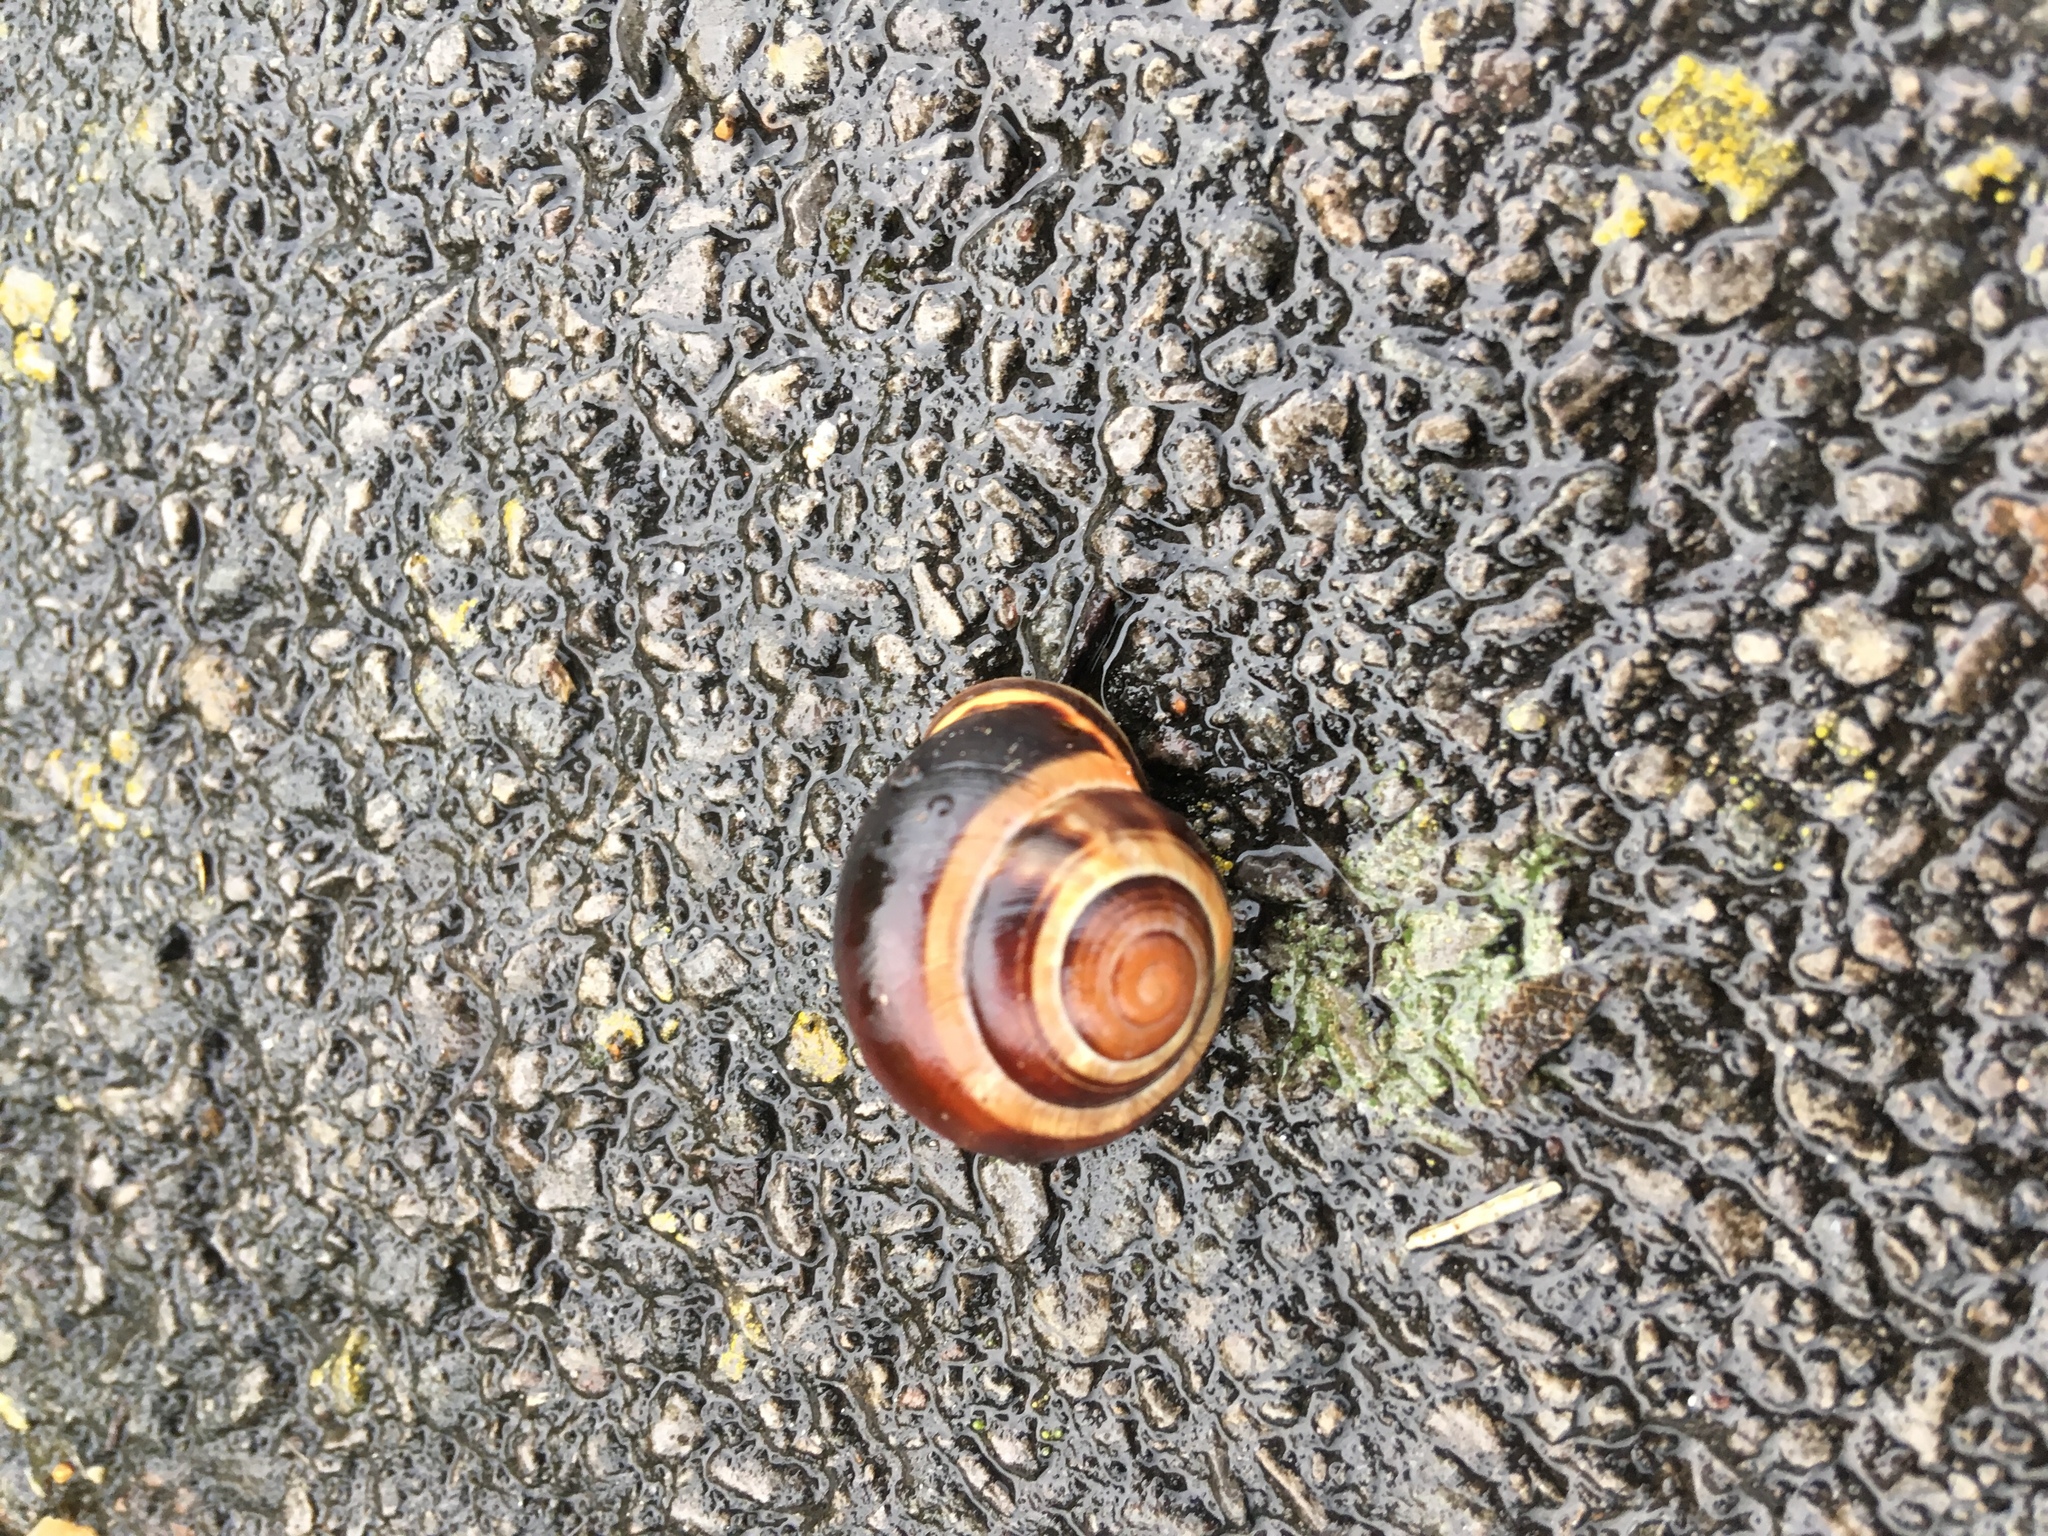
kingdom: Animalia
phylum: Mollusca
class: Gastropoda
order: Stylommatophora
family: Helicidae
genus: Cepaea
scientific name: Cepaea nemoralis
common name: Grovesnail
